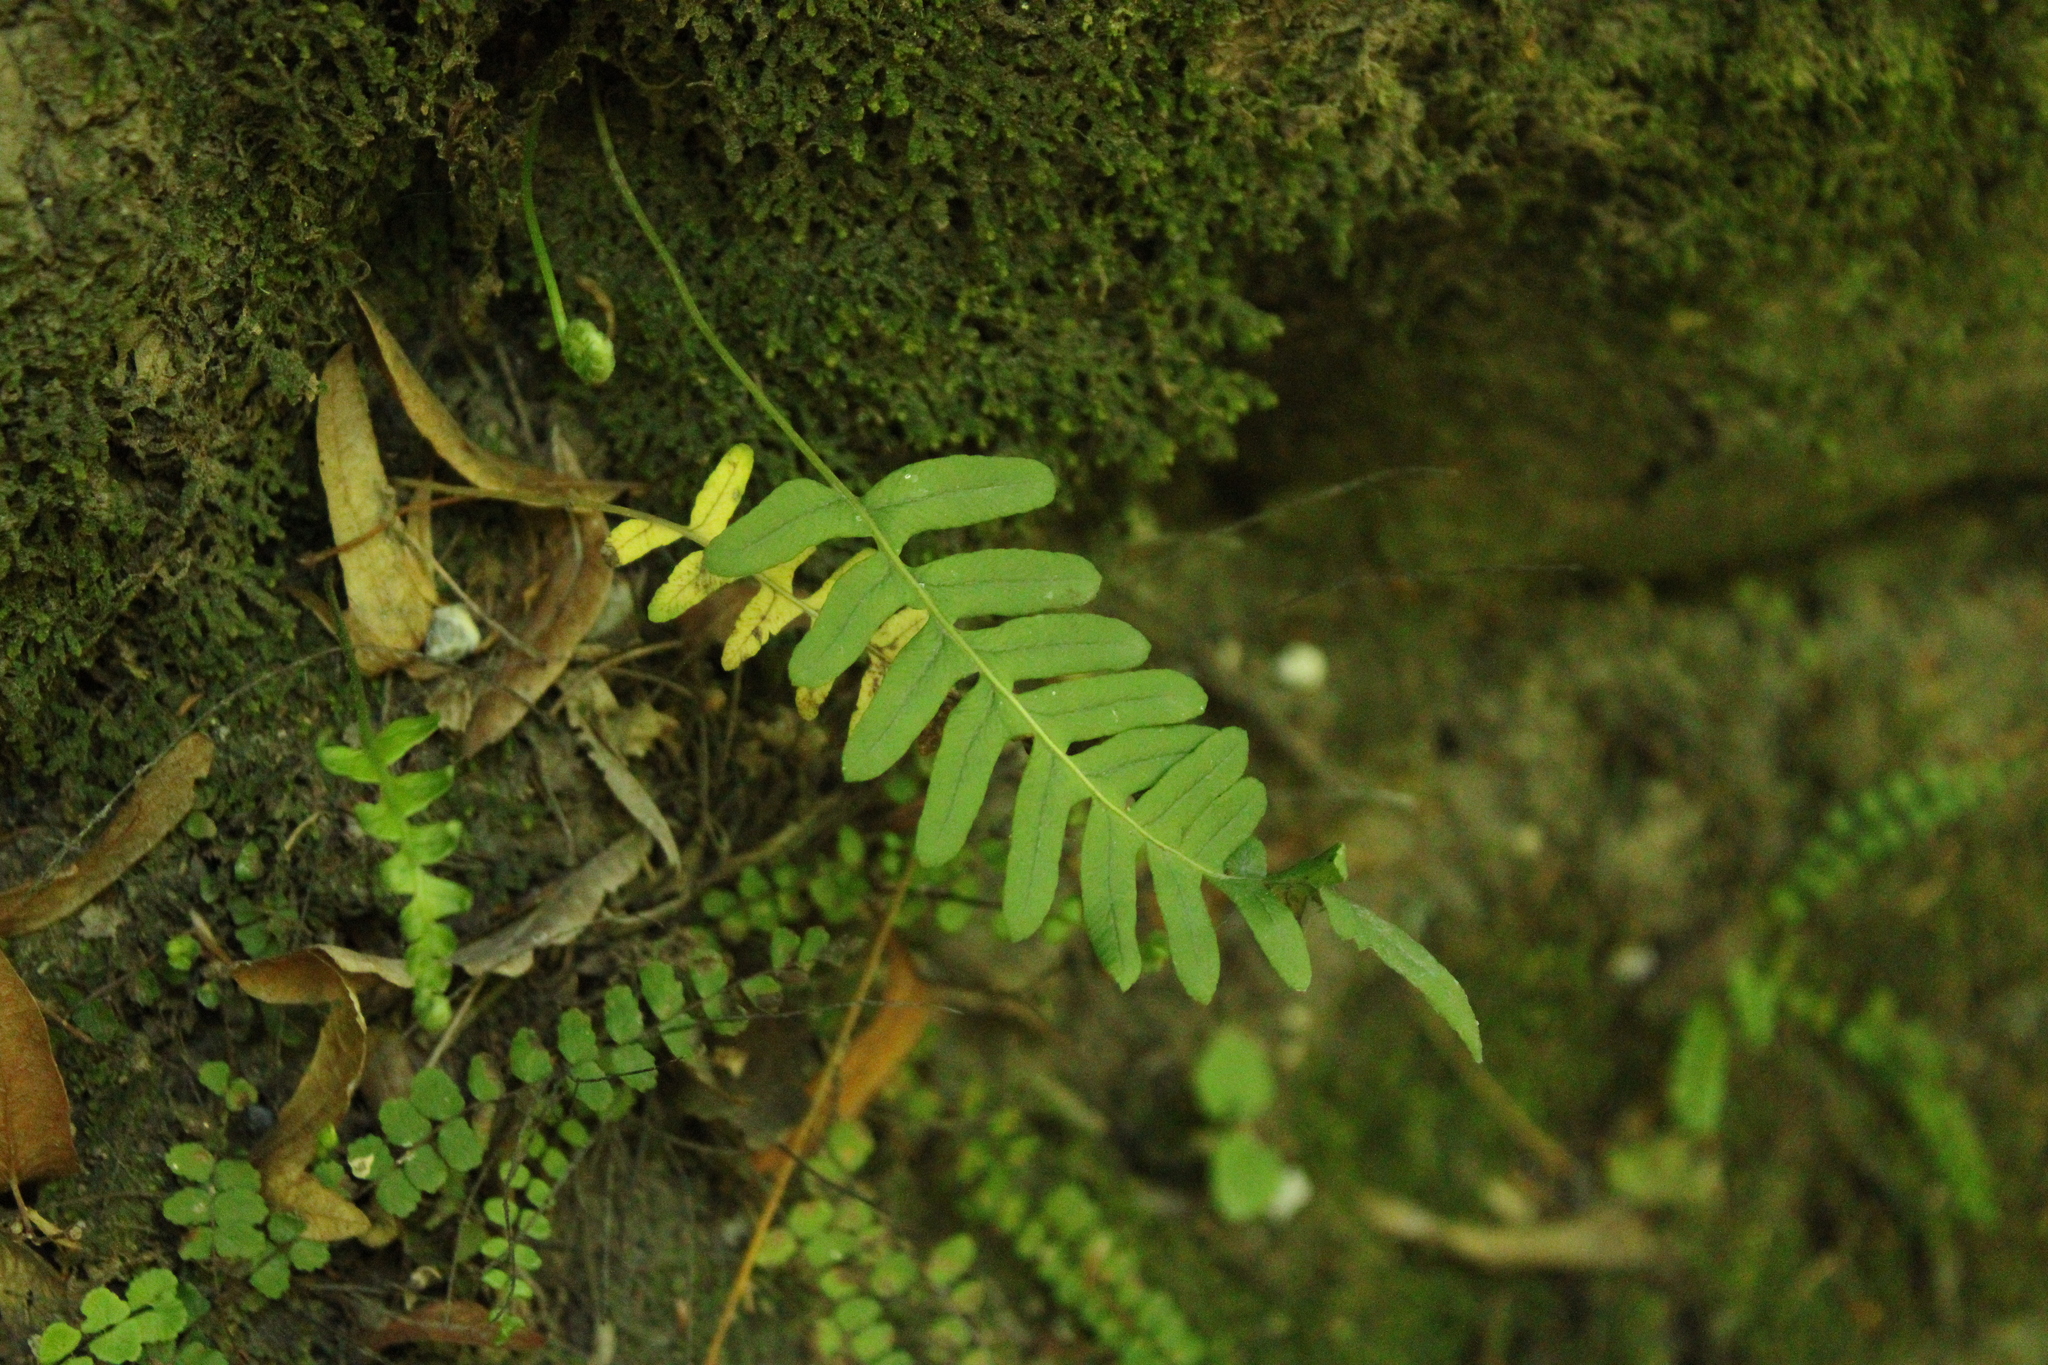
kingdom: Plantae
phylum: Tracheophyta
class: Polypodiopsida
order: Polypodiales
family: Polypodiaceae
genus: Polypodium
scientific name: Polypodium vulgare
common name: Common polypody
